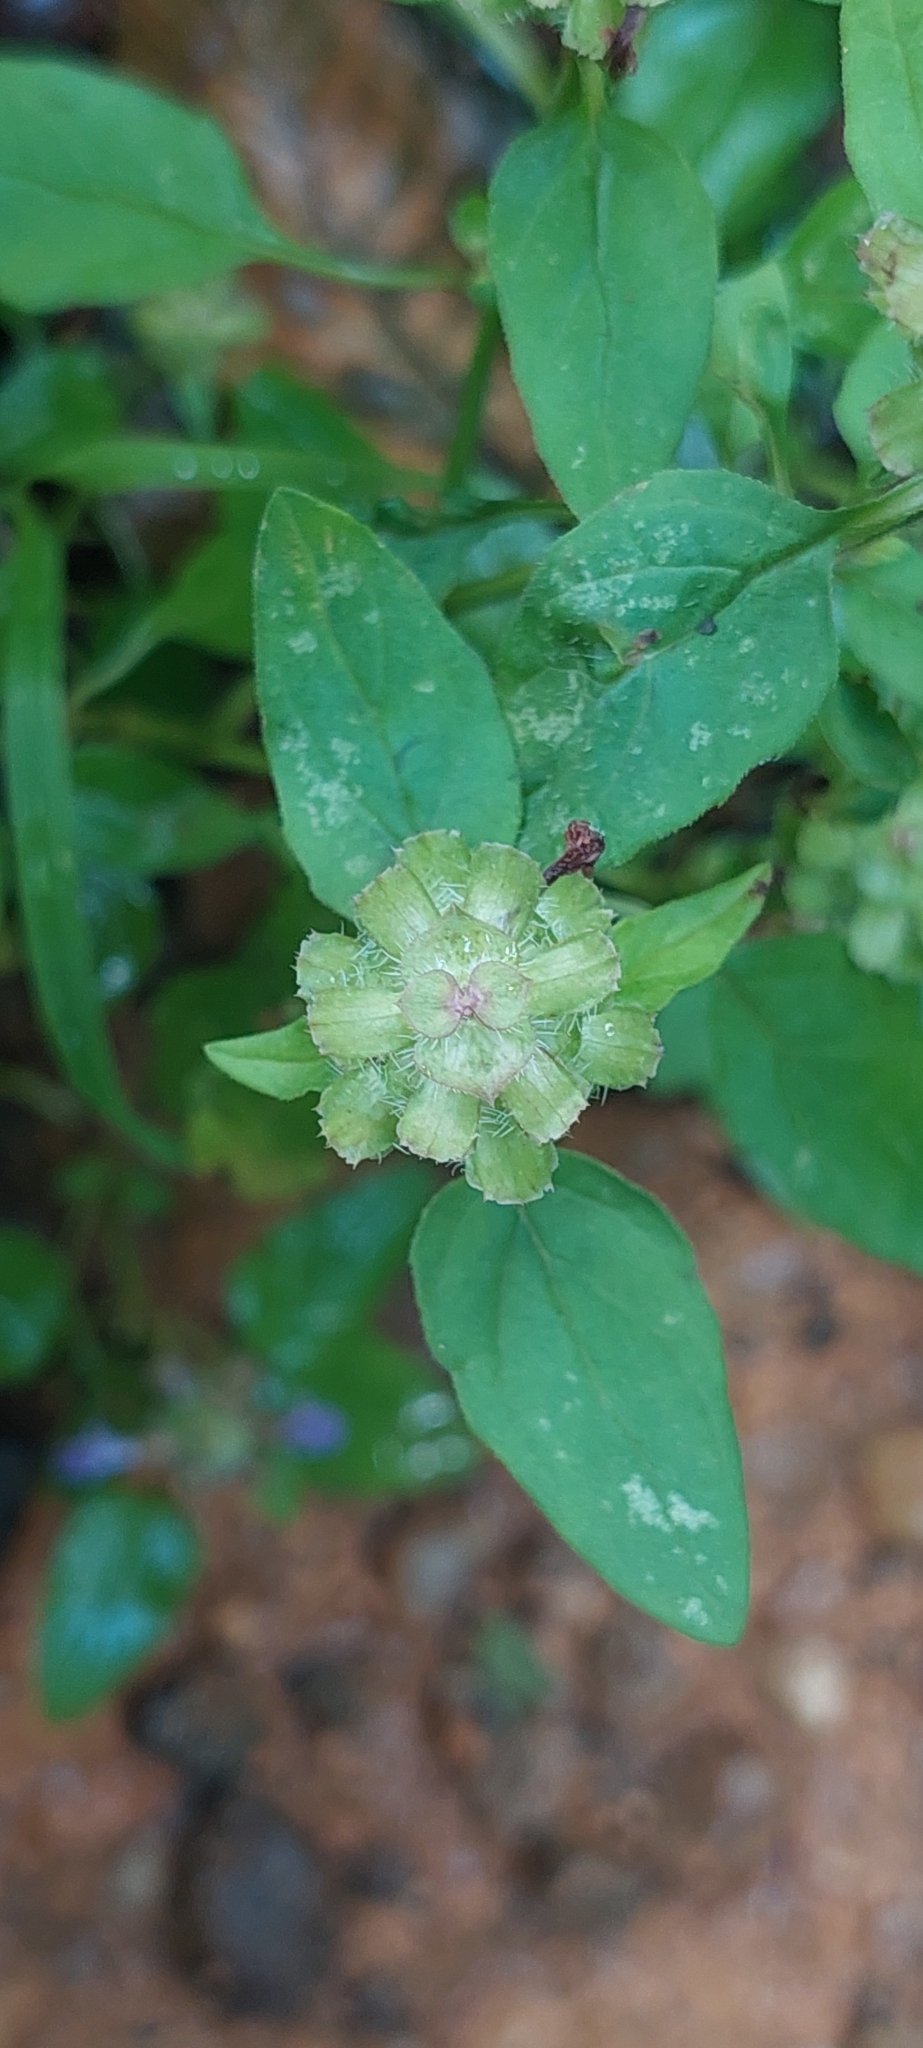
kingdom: Plantae
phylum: Tracheophyta
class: Magnoliopsida
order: Lamiales
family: Lamiaceae
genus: Prunella
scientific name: Prunella vulgaris
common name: Heal-all
